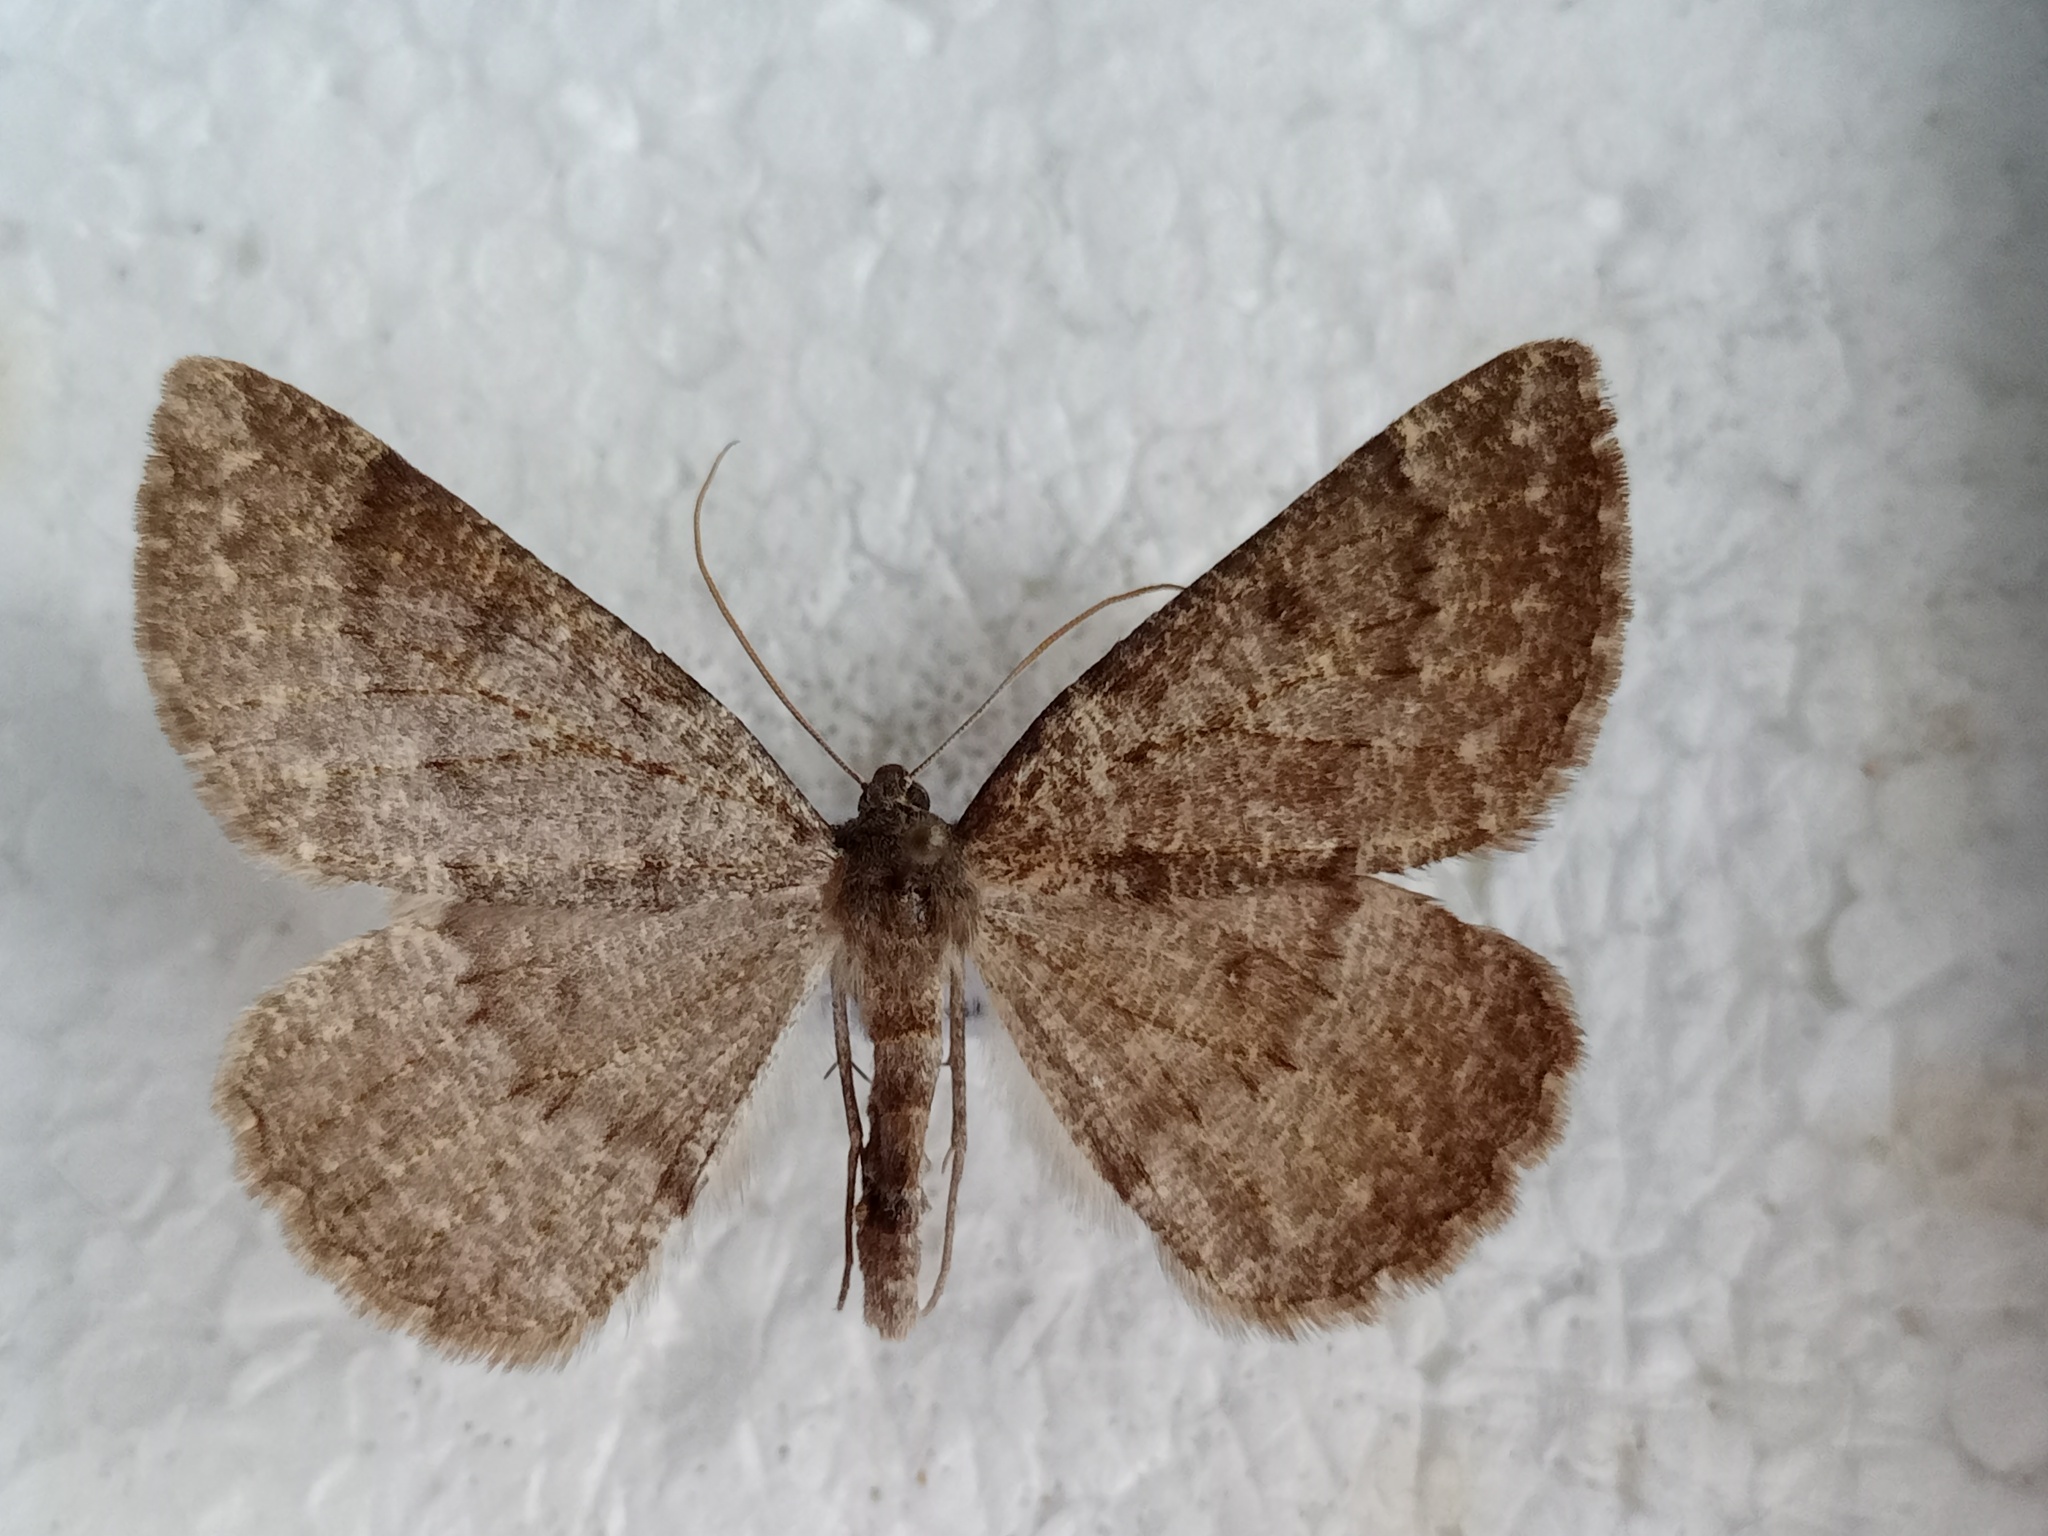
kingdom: Animalia
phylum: Arthropoda
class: Insecta
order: Lepidoptera
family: Geometridae
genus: Gnophos
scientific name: Gnophos obfuscata
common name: Scottish annulet
